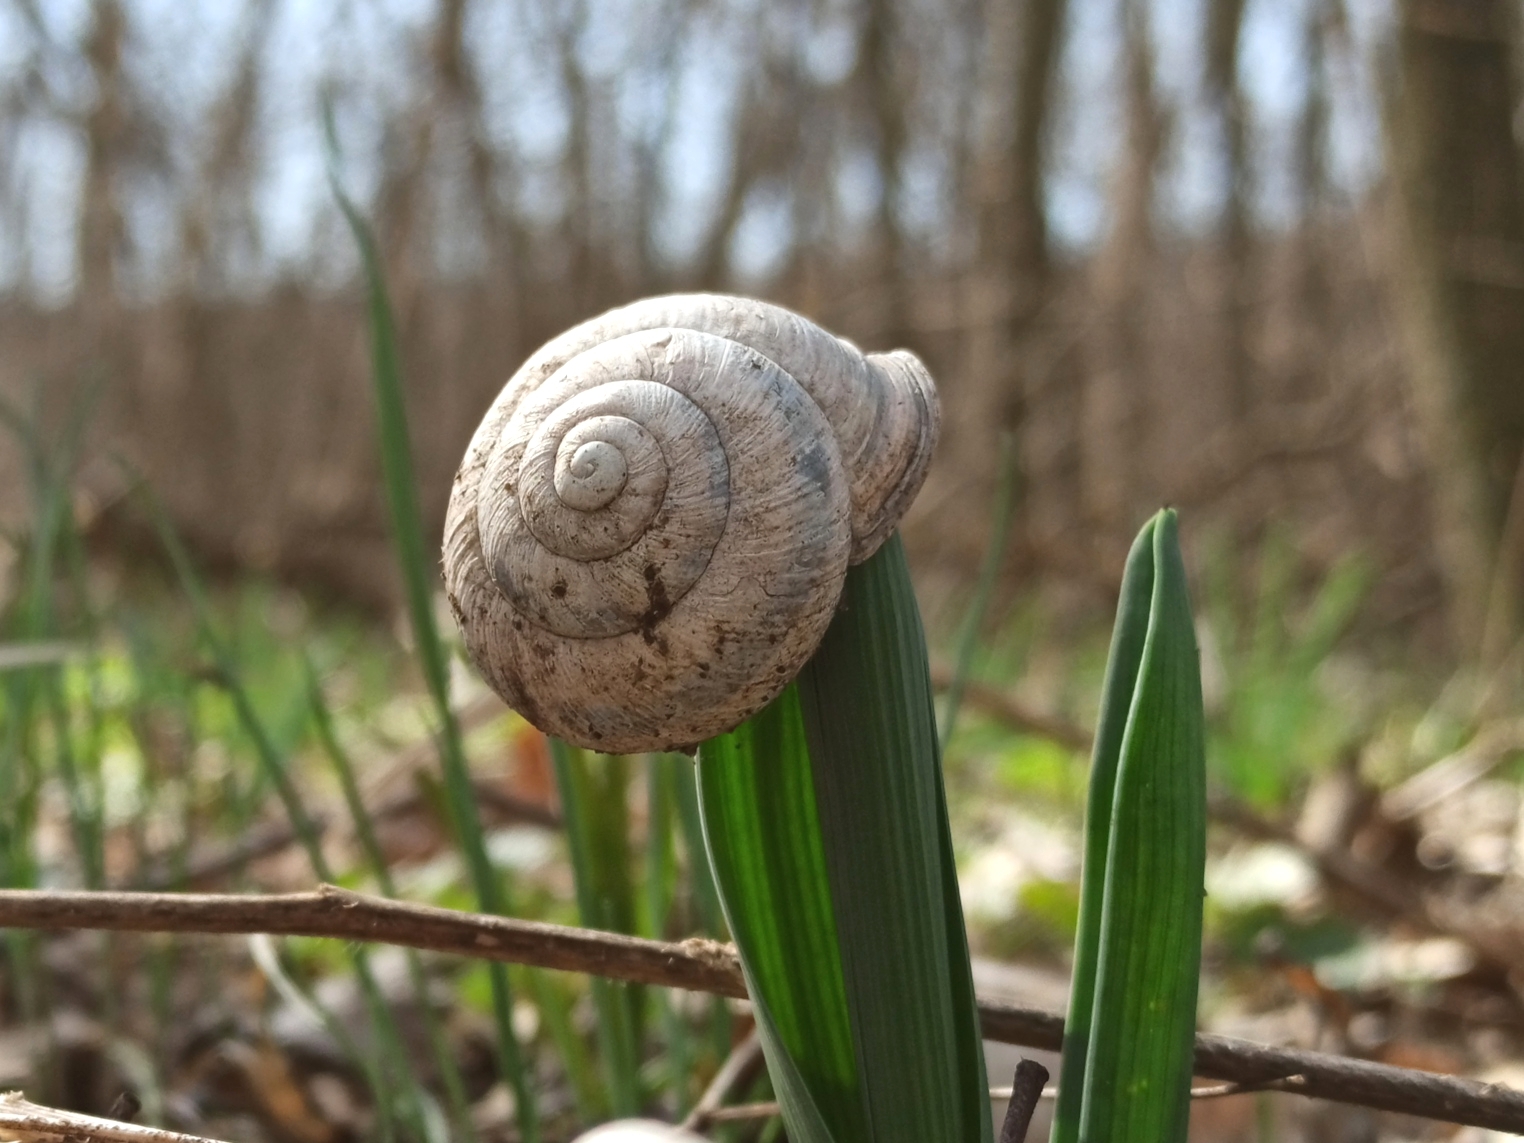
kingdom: Animalia
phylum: Mollusca
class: Gastropoda
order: Stylommatophora
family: Helicidae
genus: Caucasotachea
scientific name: Caucasotachea atrolabiata
